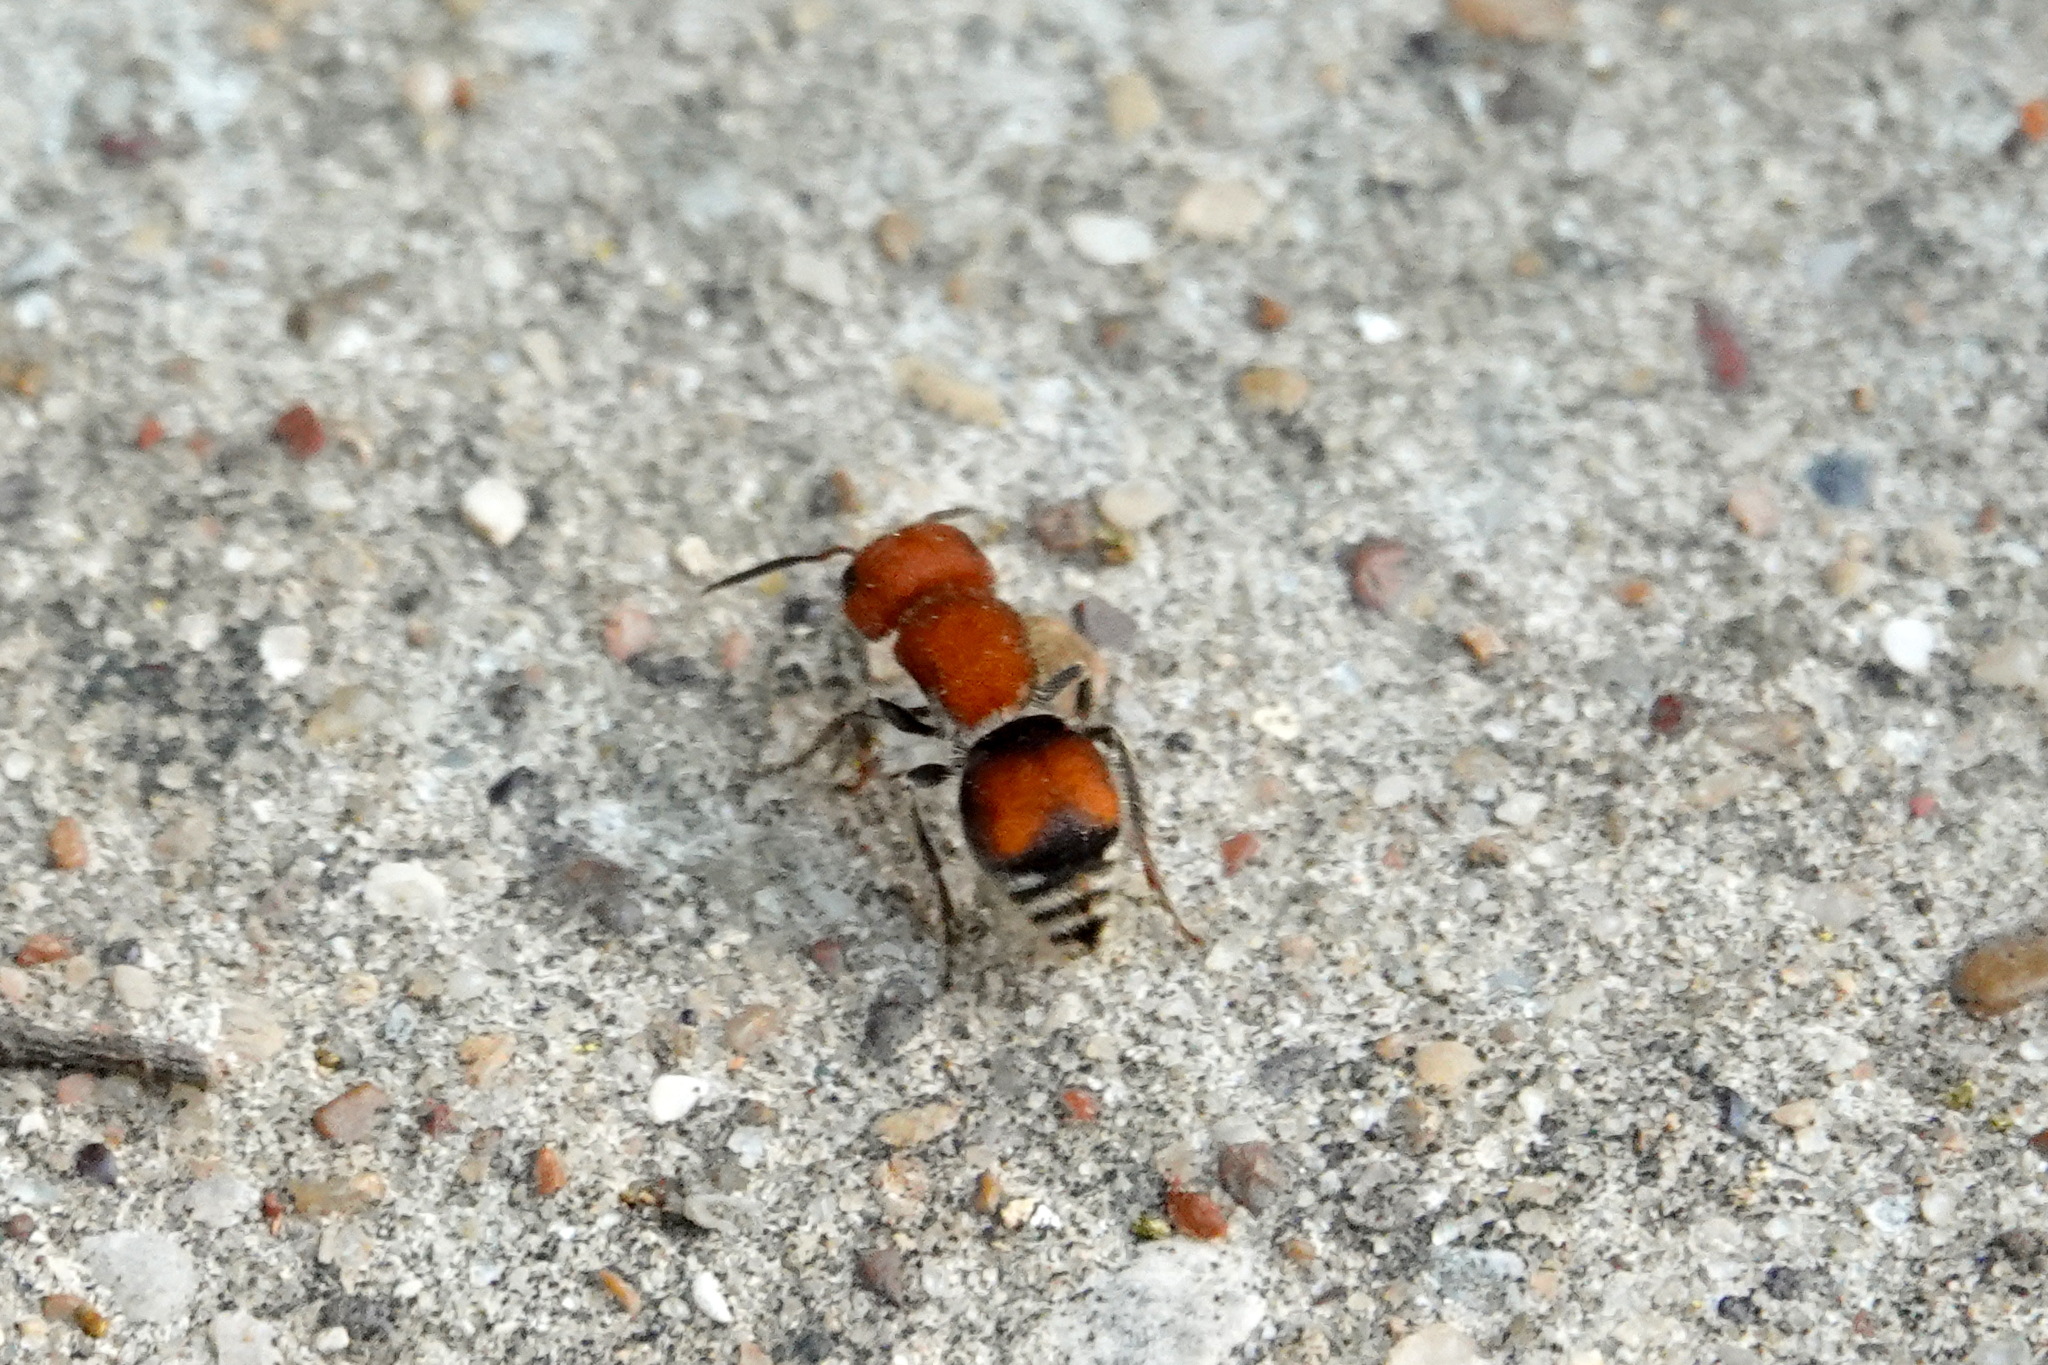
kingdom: Animalia
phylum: Arthropoda
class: Insecta
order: Hymenoptera
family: Mutillidae
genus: Pseudomethoca
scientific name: Pseudomethoca
